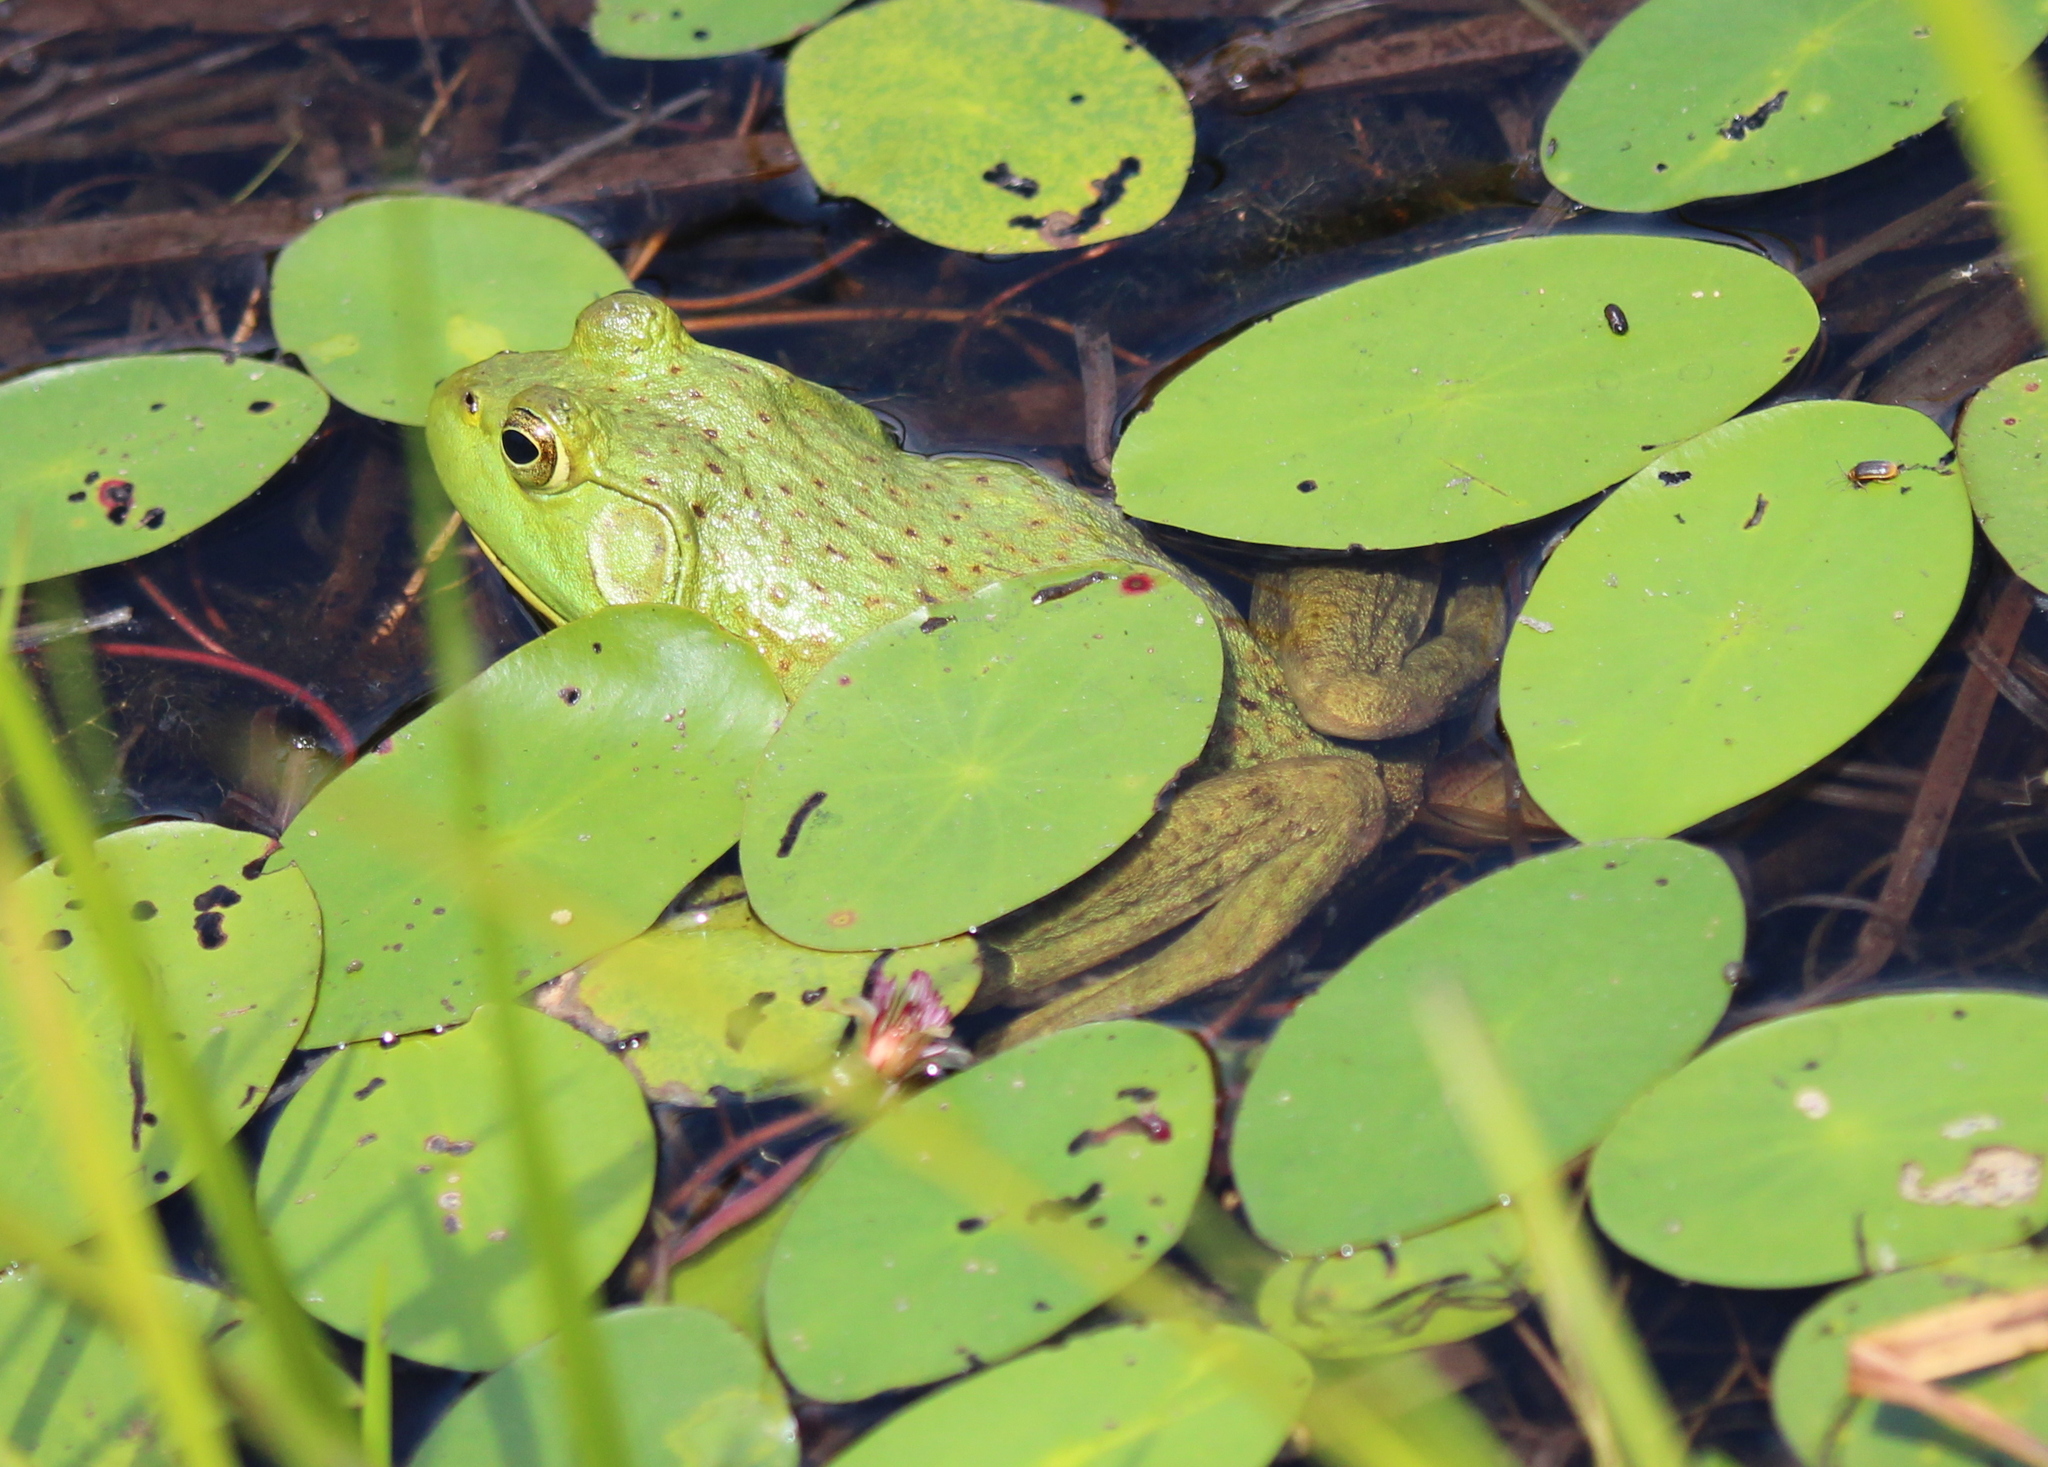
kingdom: Animalia
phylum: Chordata
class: Amphibia
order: Anura
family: Ranidae
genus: Lithobates
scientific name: Lithobates catesbeianus
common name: American bullfrog
